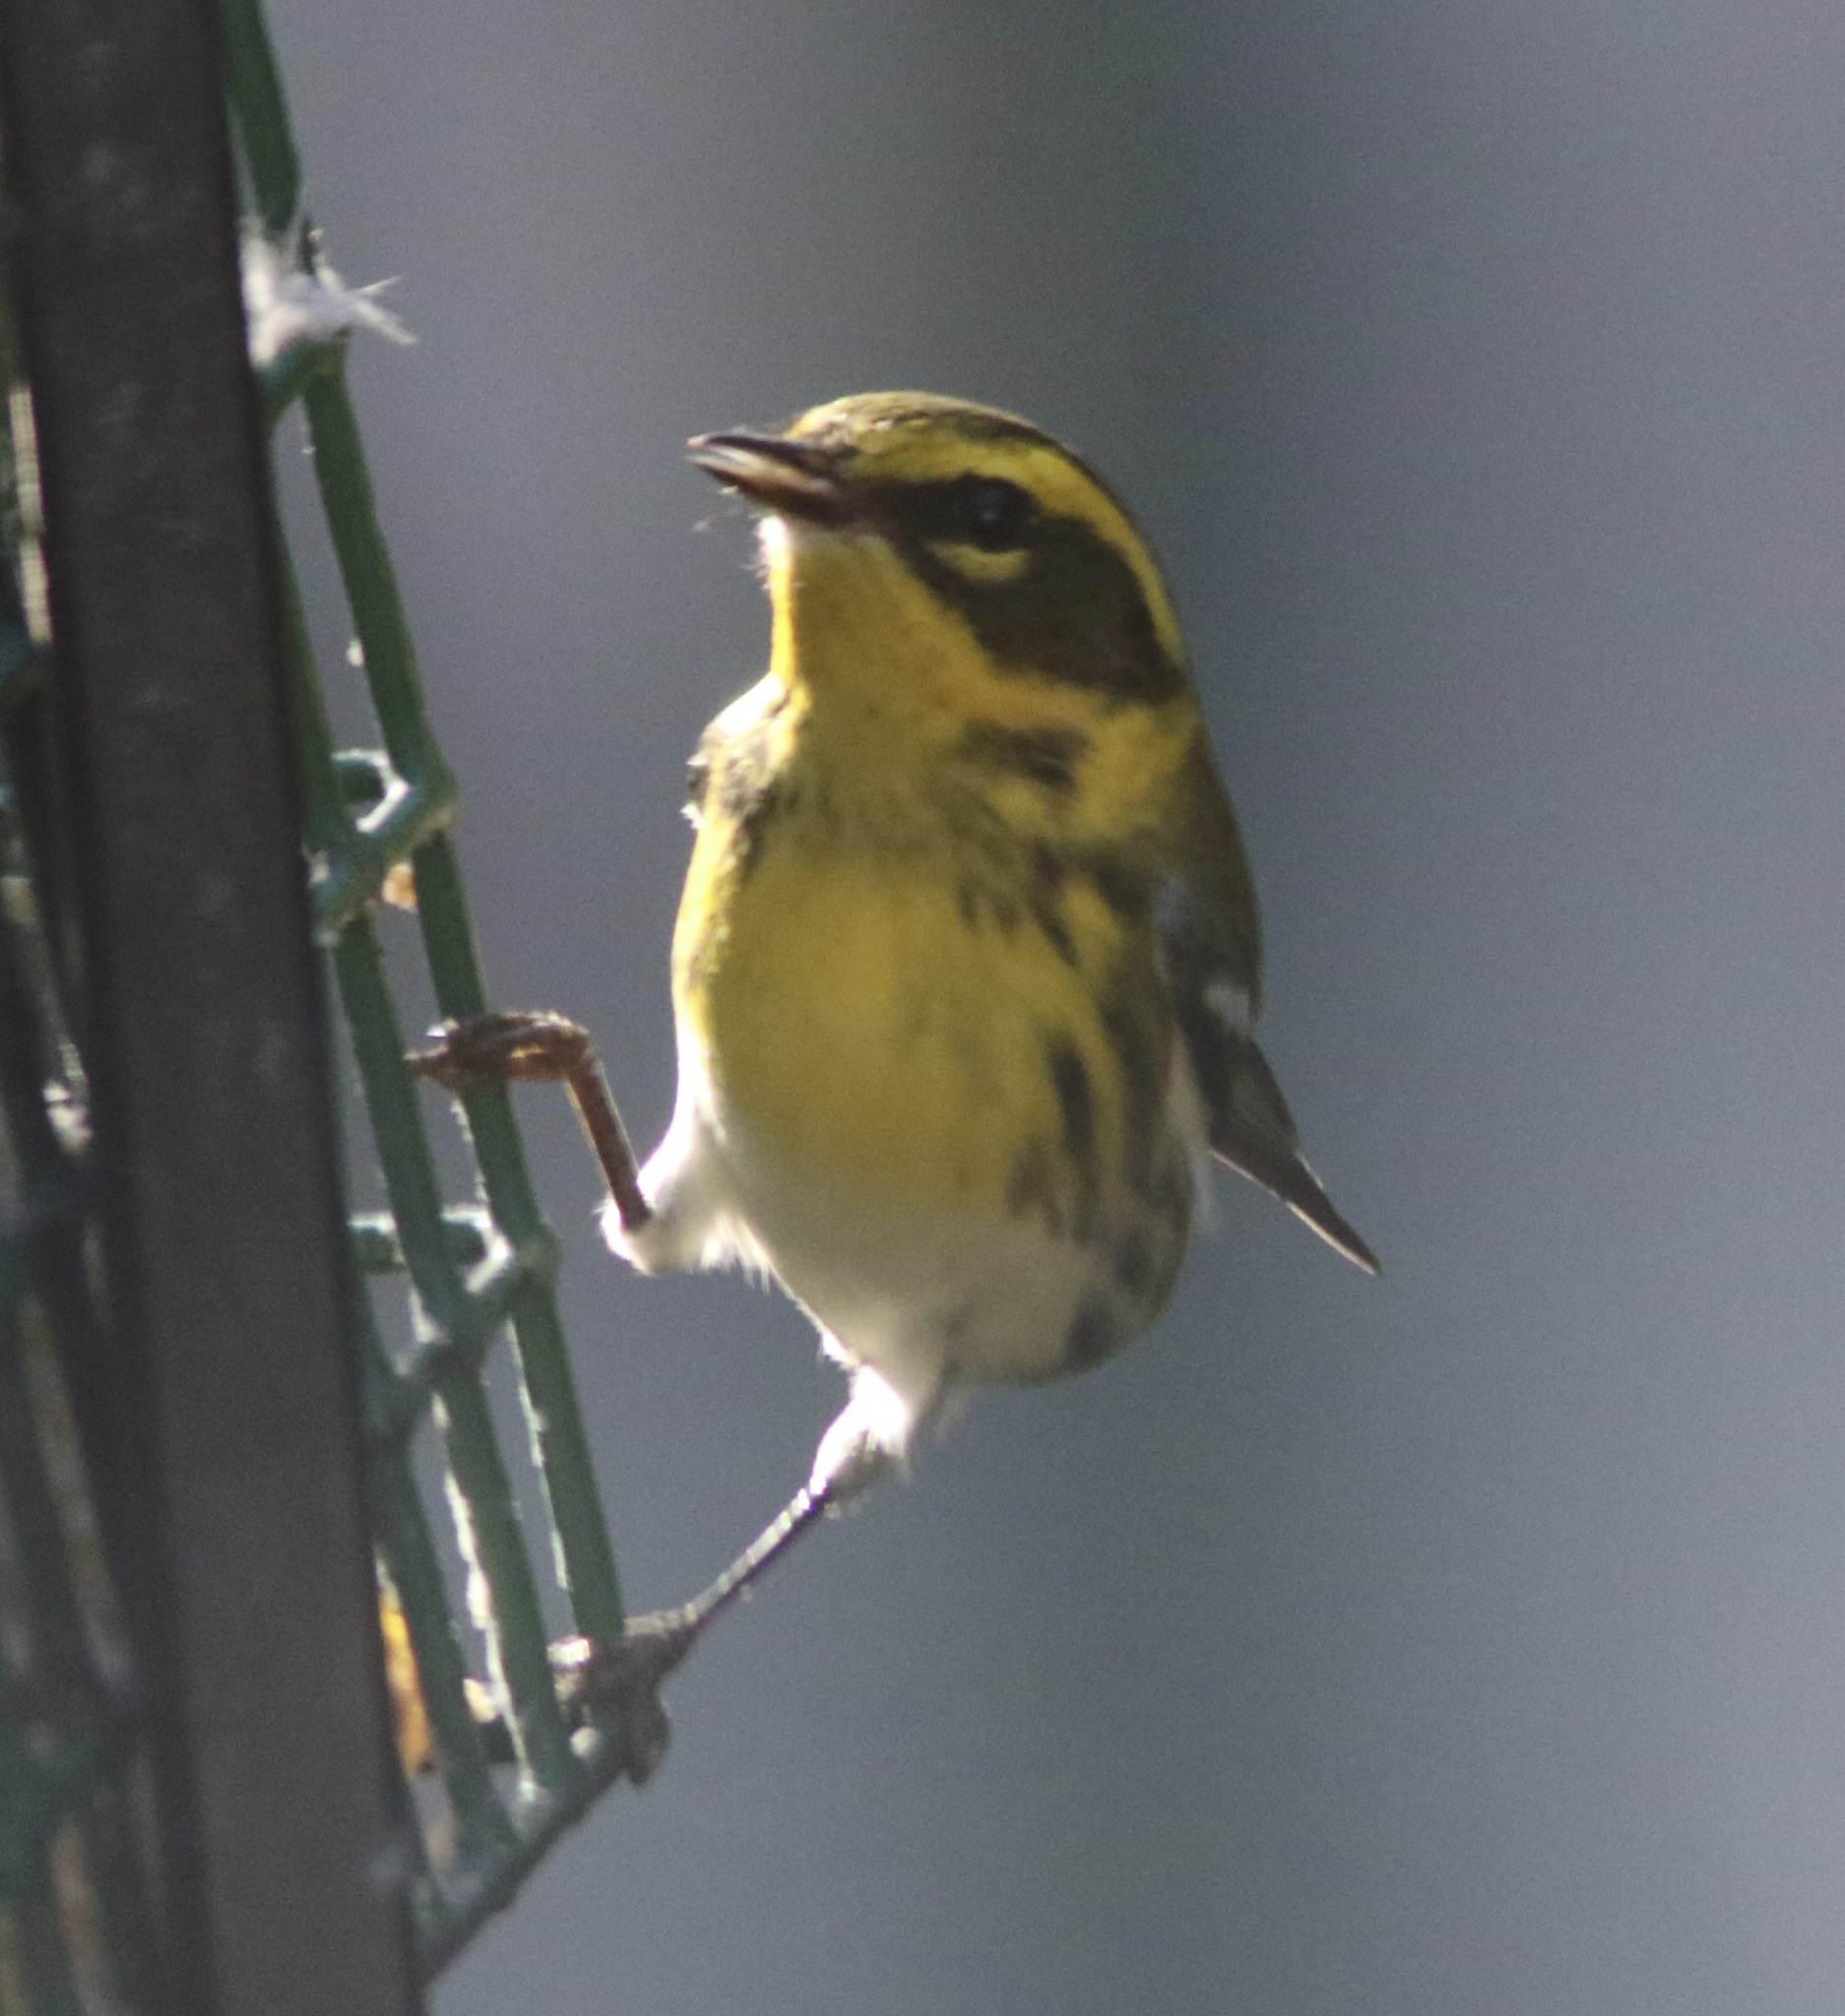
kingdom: Animalia
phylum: Chordata
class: Aves
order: Passeriformes
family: Parulidae
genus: Setophaga
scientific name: Setophaga townsendi
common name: Townsend's warbler
